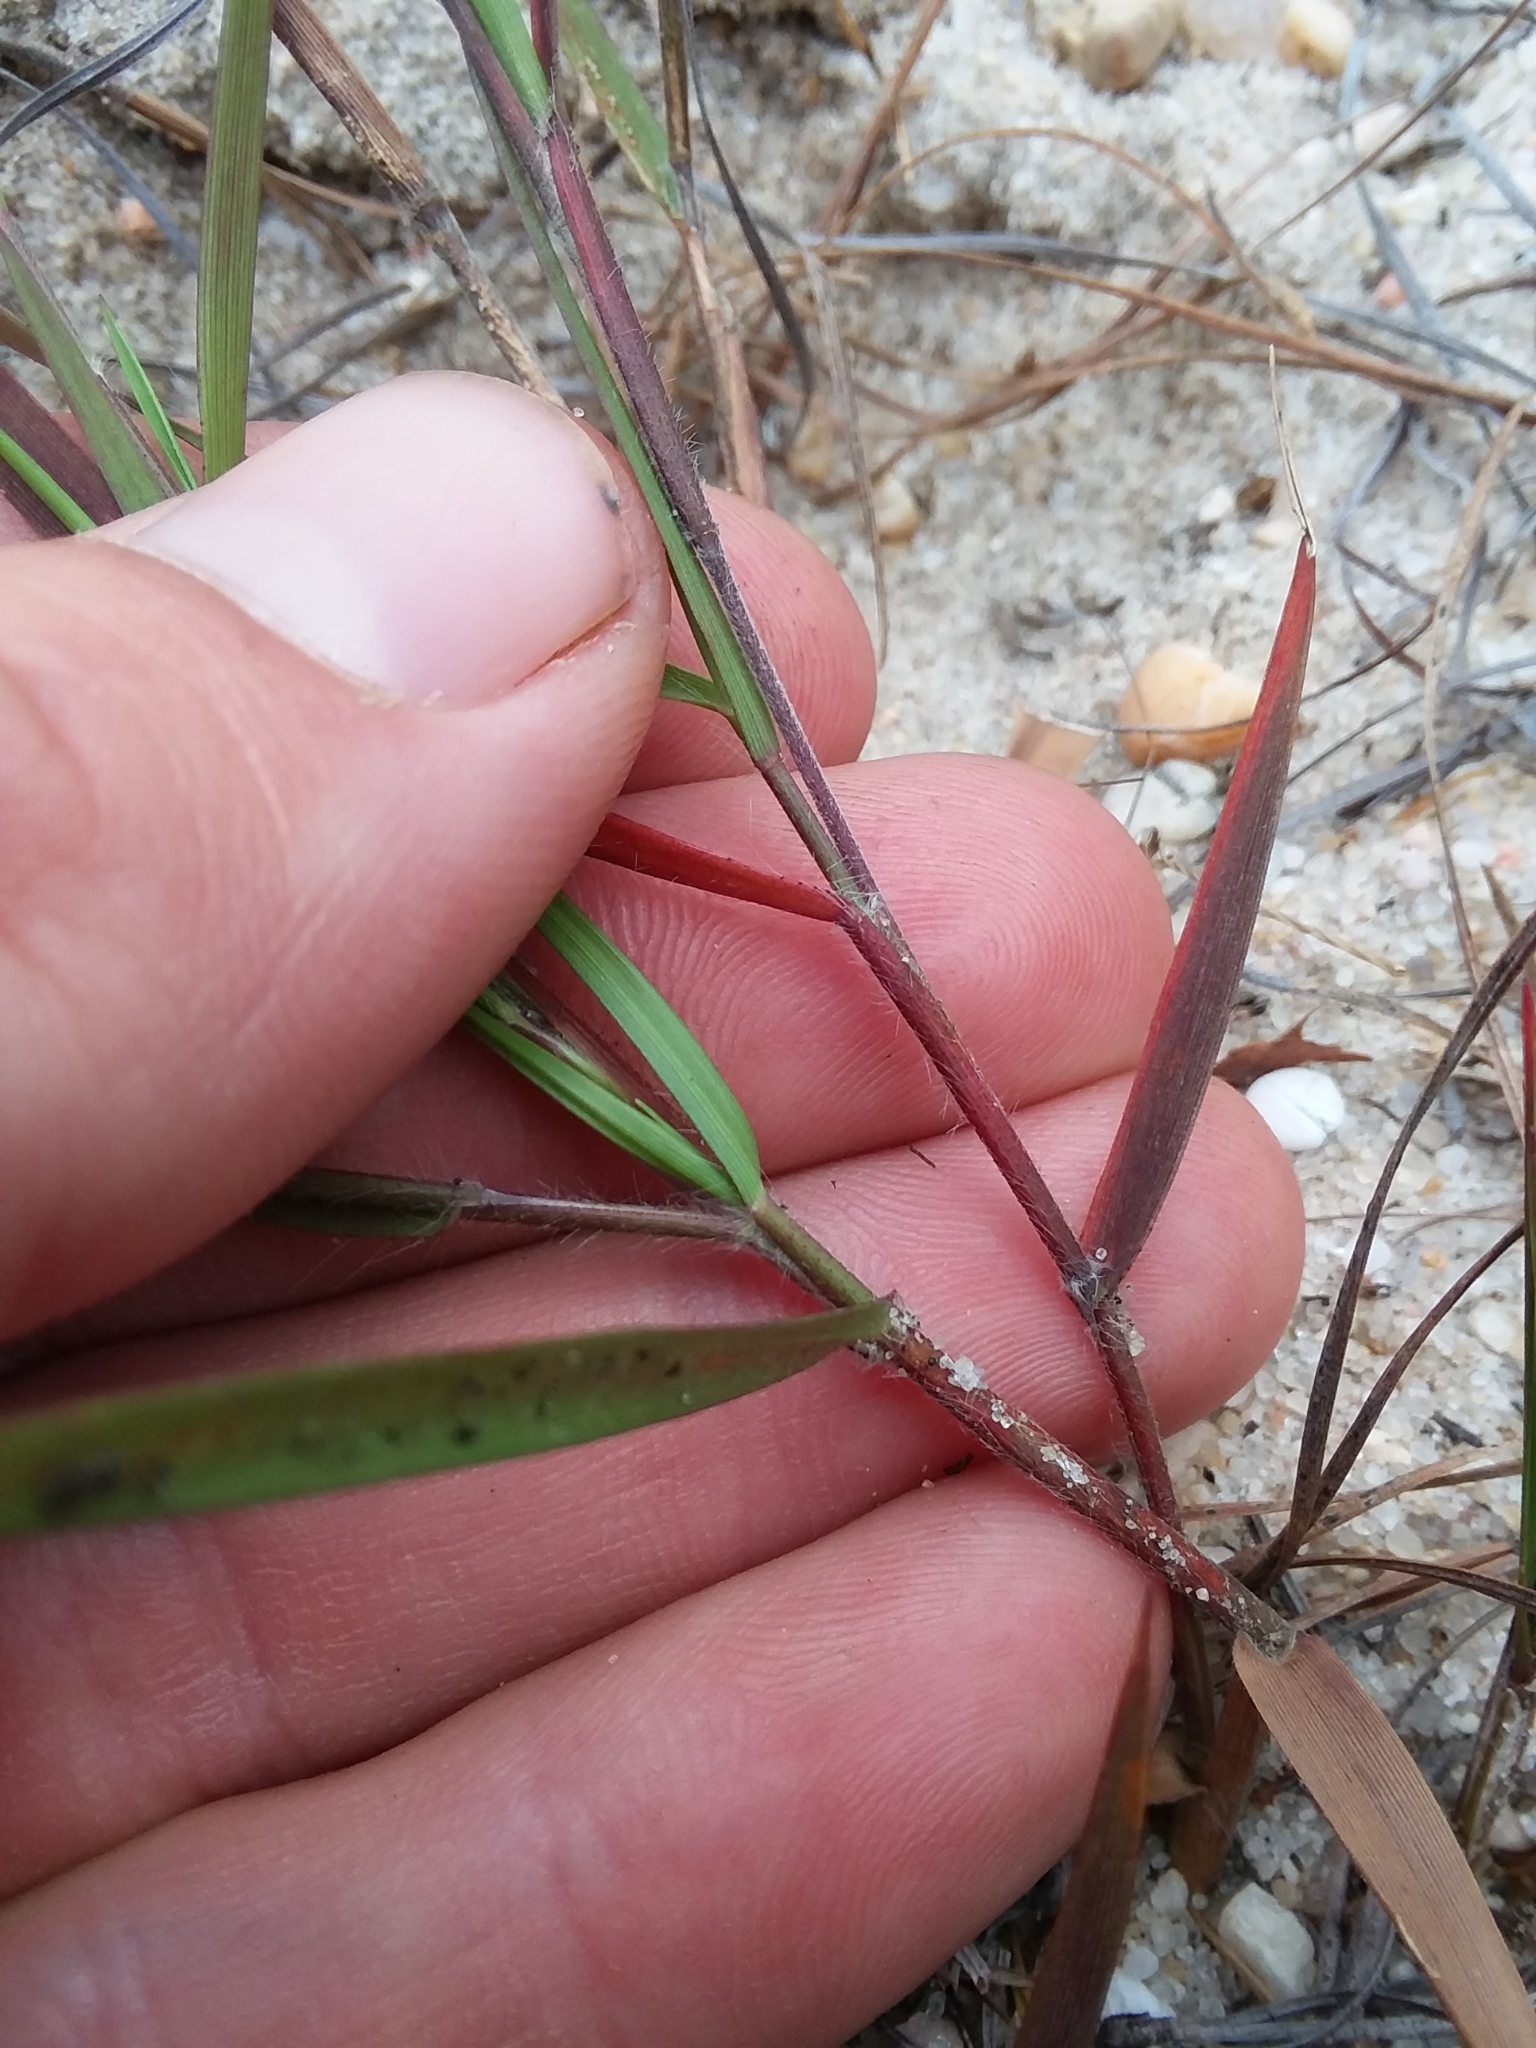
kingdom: Plantae
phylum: Tracheophyta
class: Liliopsida
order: Poales
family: Poaceae
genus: Dichanthelium
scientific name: Dichanthelium filiramum
